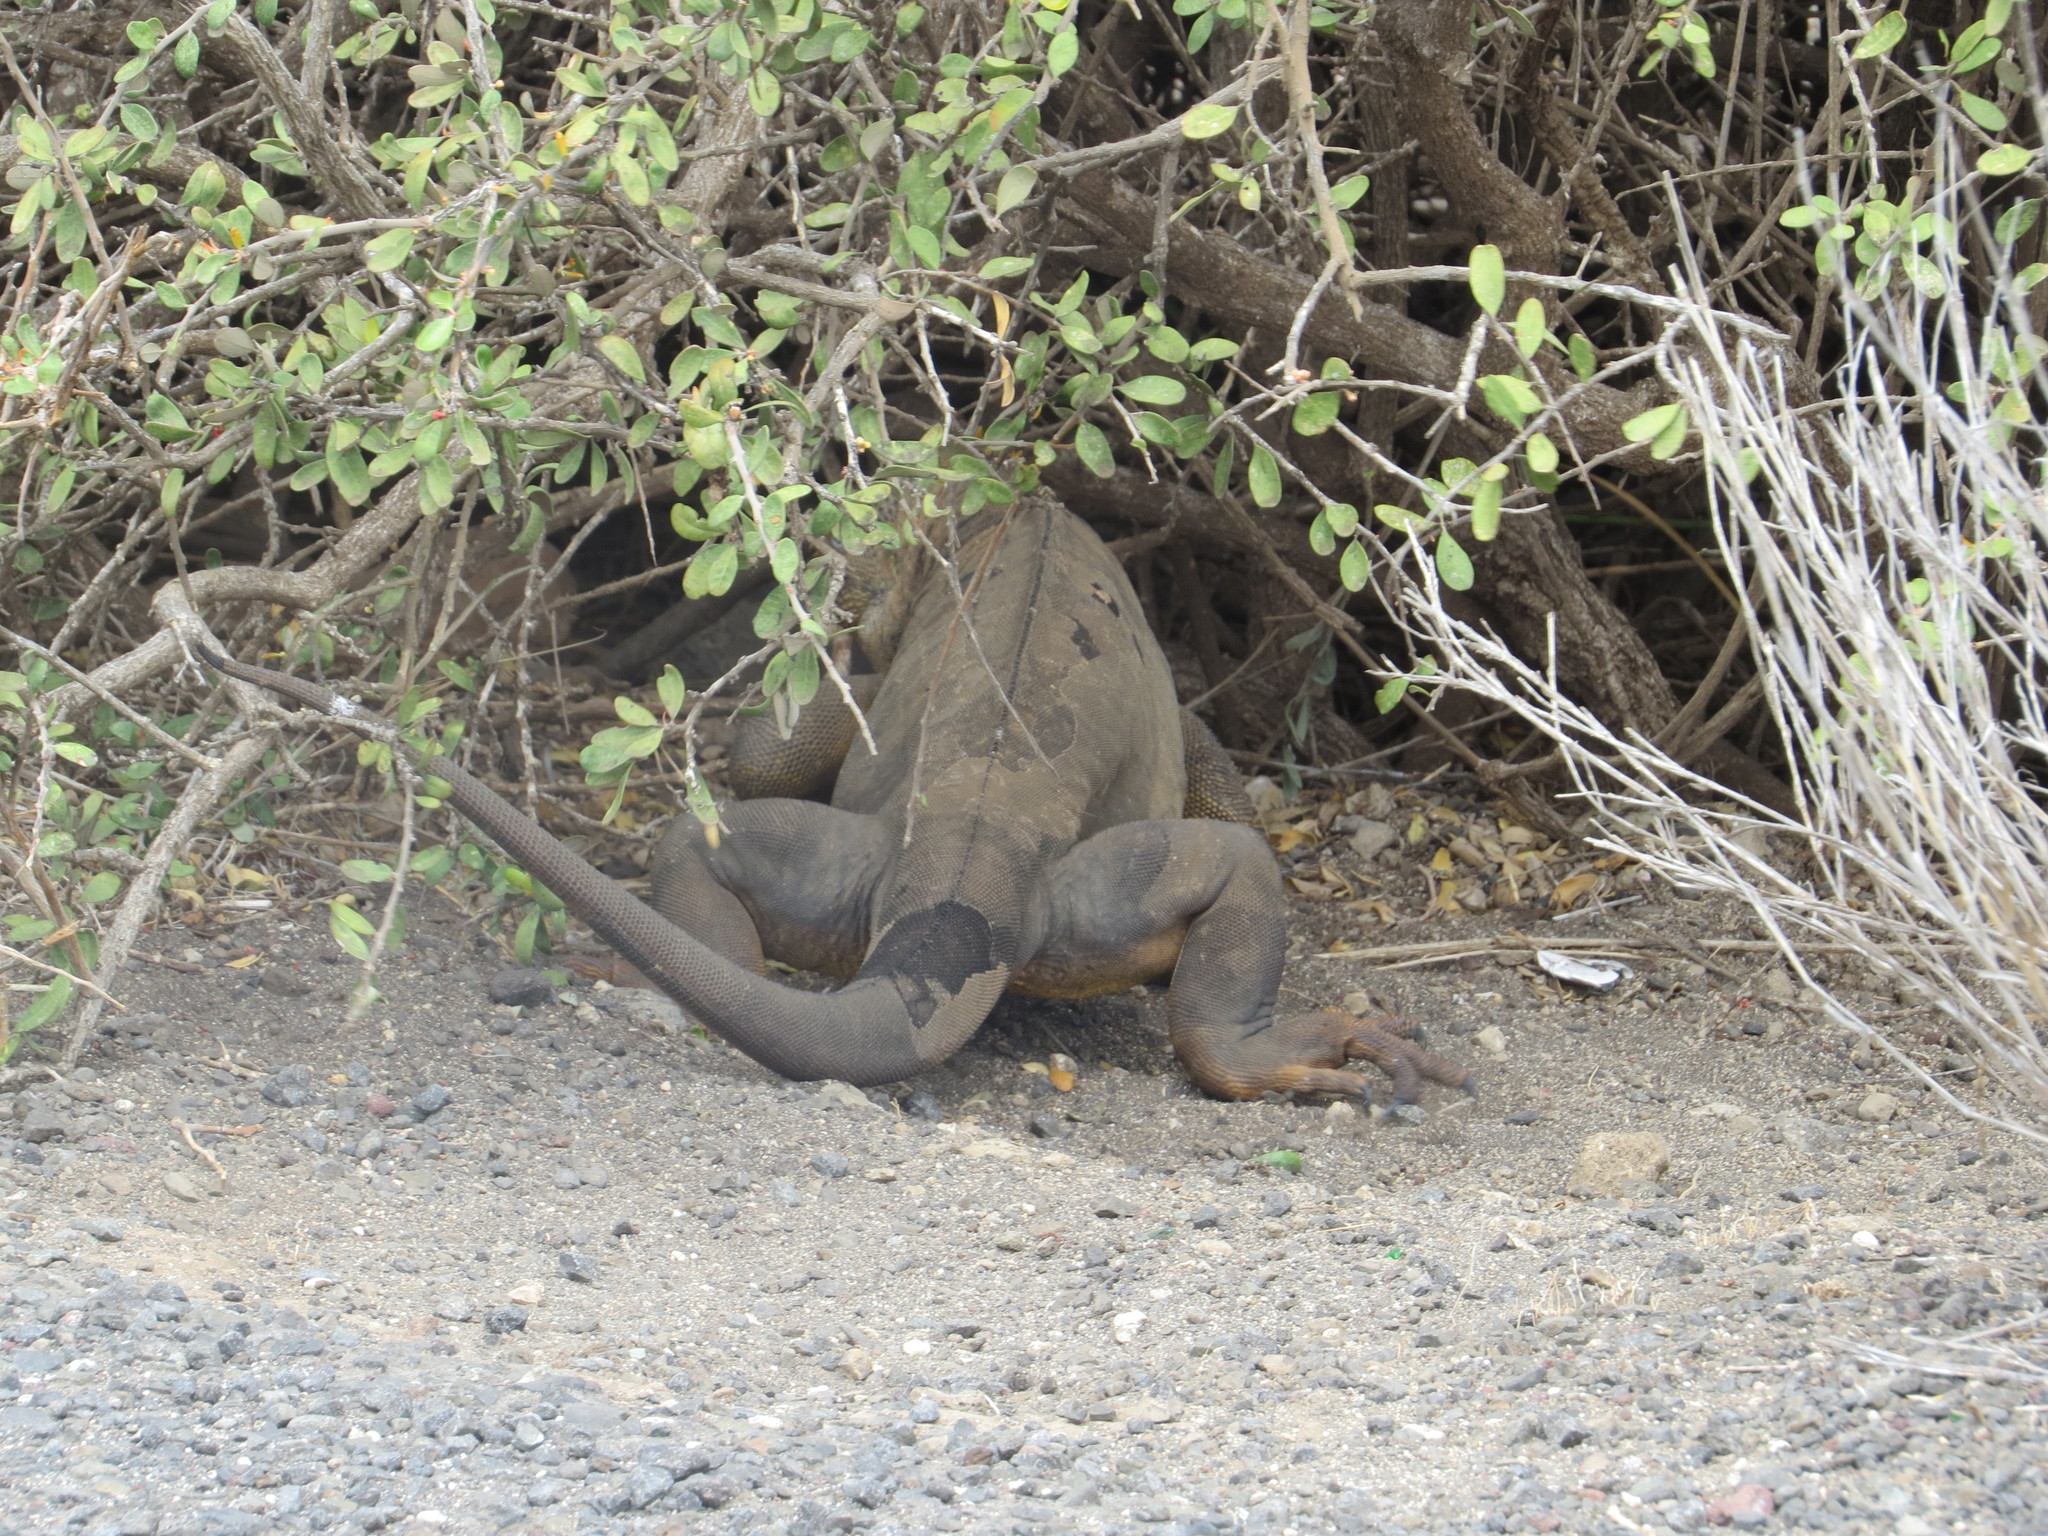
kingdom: Animalia
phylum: Chordata
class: Squamata
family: Iguanidae
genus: Conolophus
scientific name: Conolophus subcristatus
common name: Galapagos land iguana
